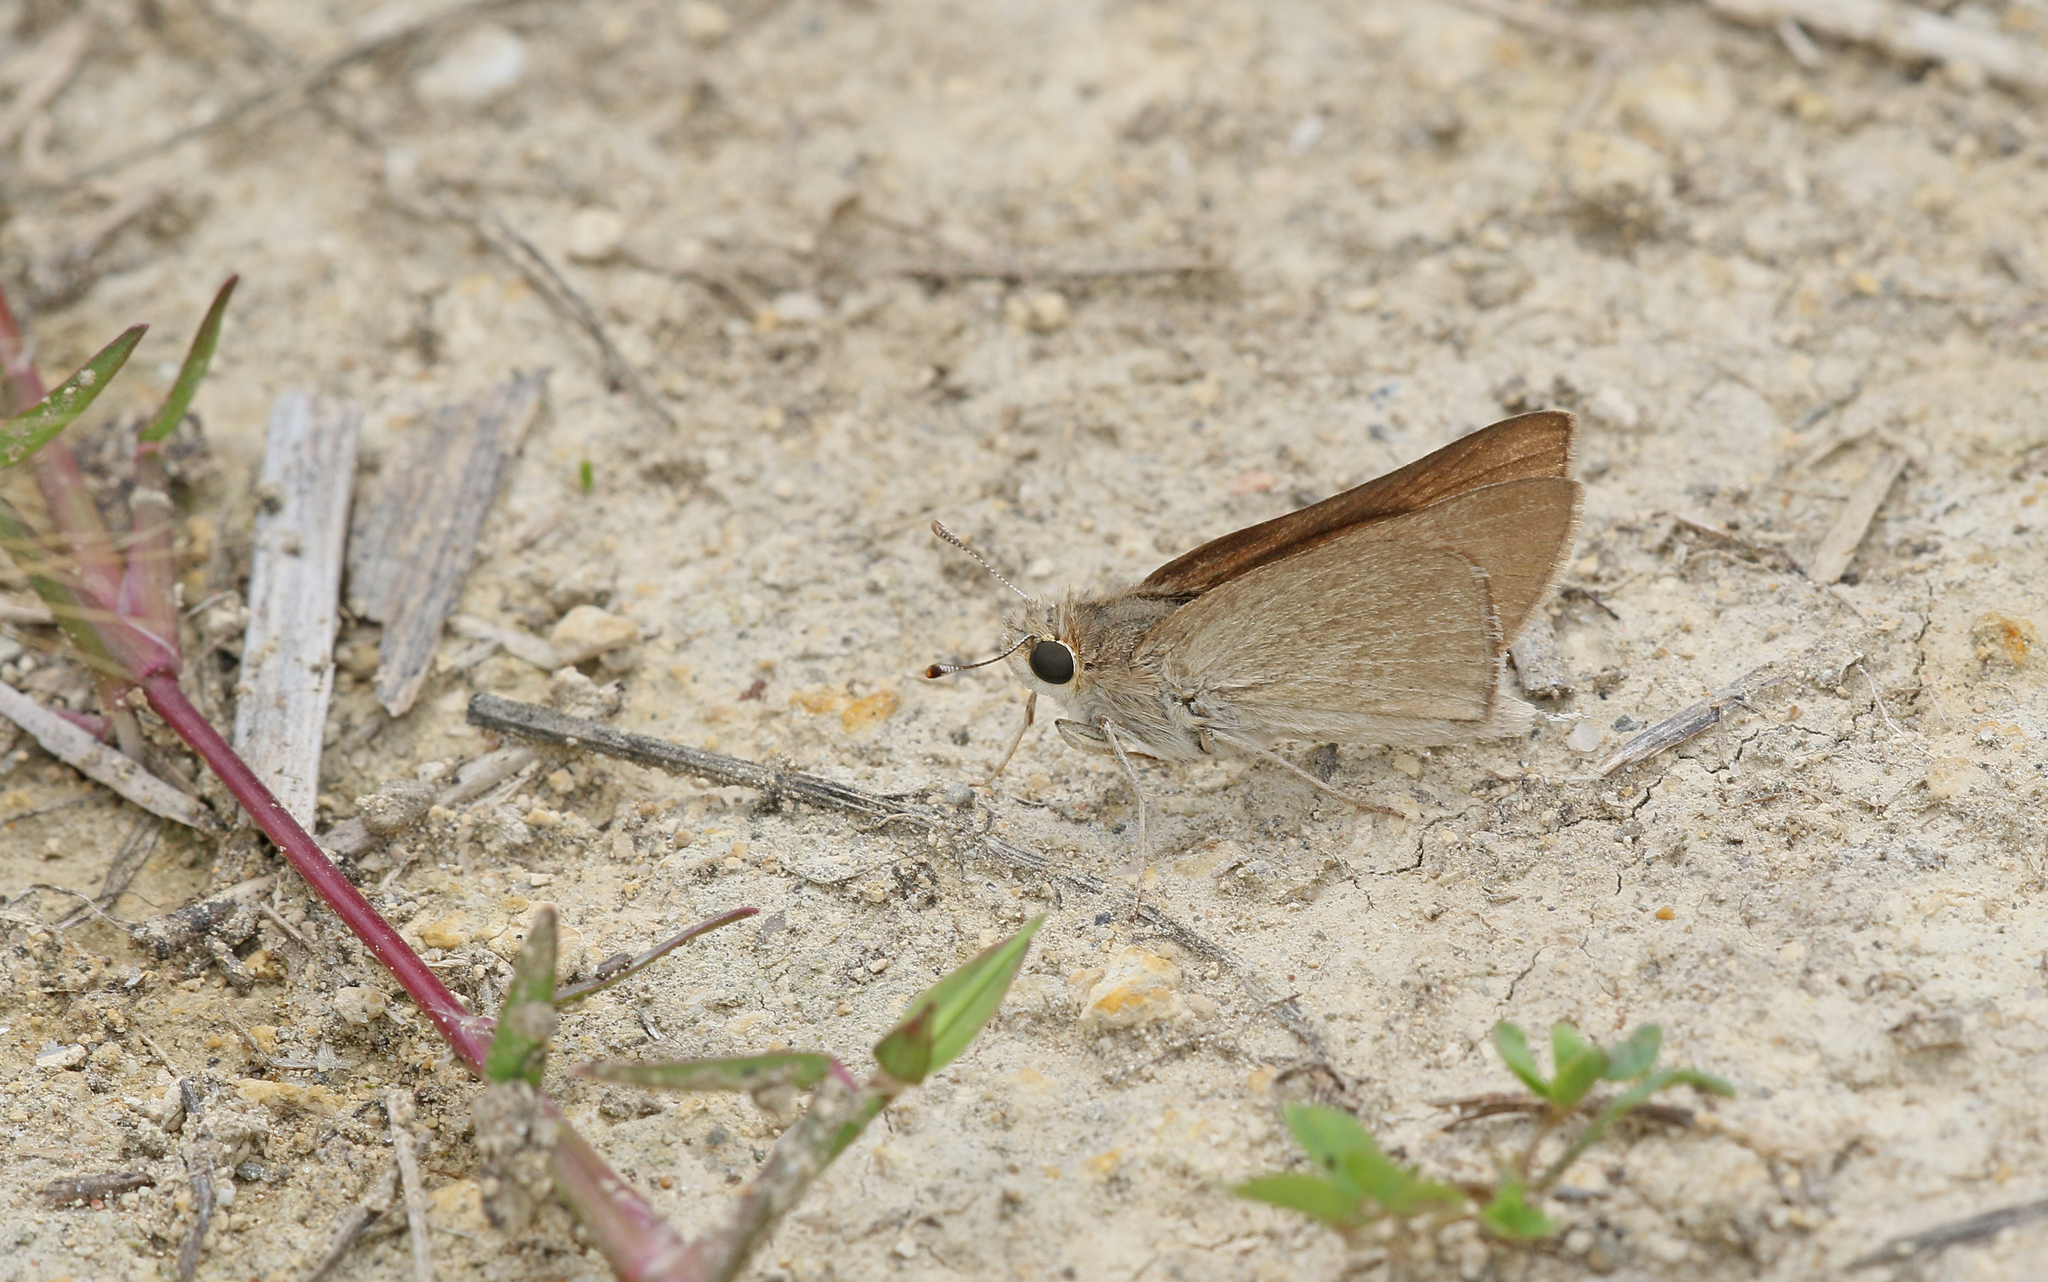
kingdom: Animalia
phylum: Arthropoda
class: Insecta
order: Lepidoptera
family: Hesperiidae
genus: Gegenes
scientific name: Gegenes nostrodamus
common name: Mediterranean skipper
